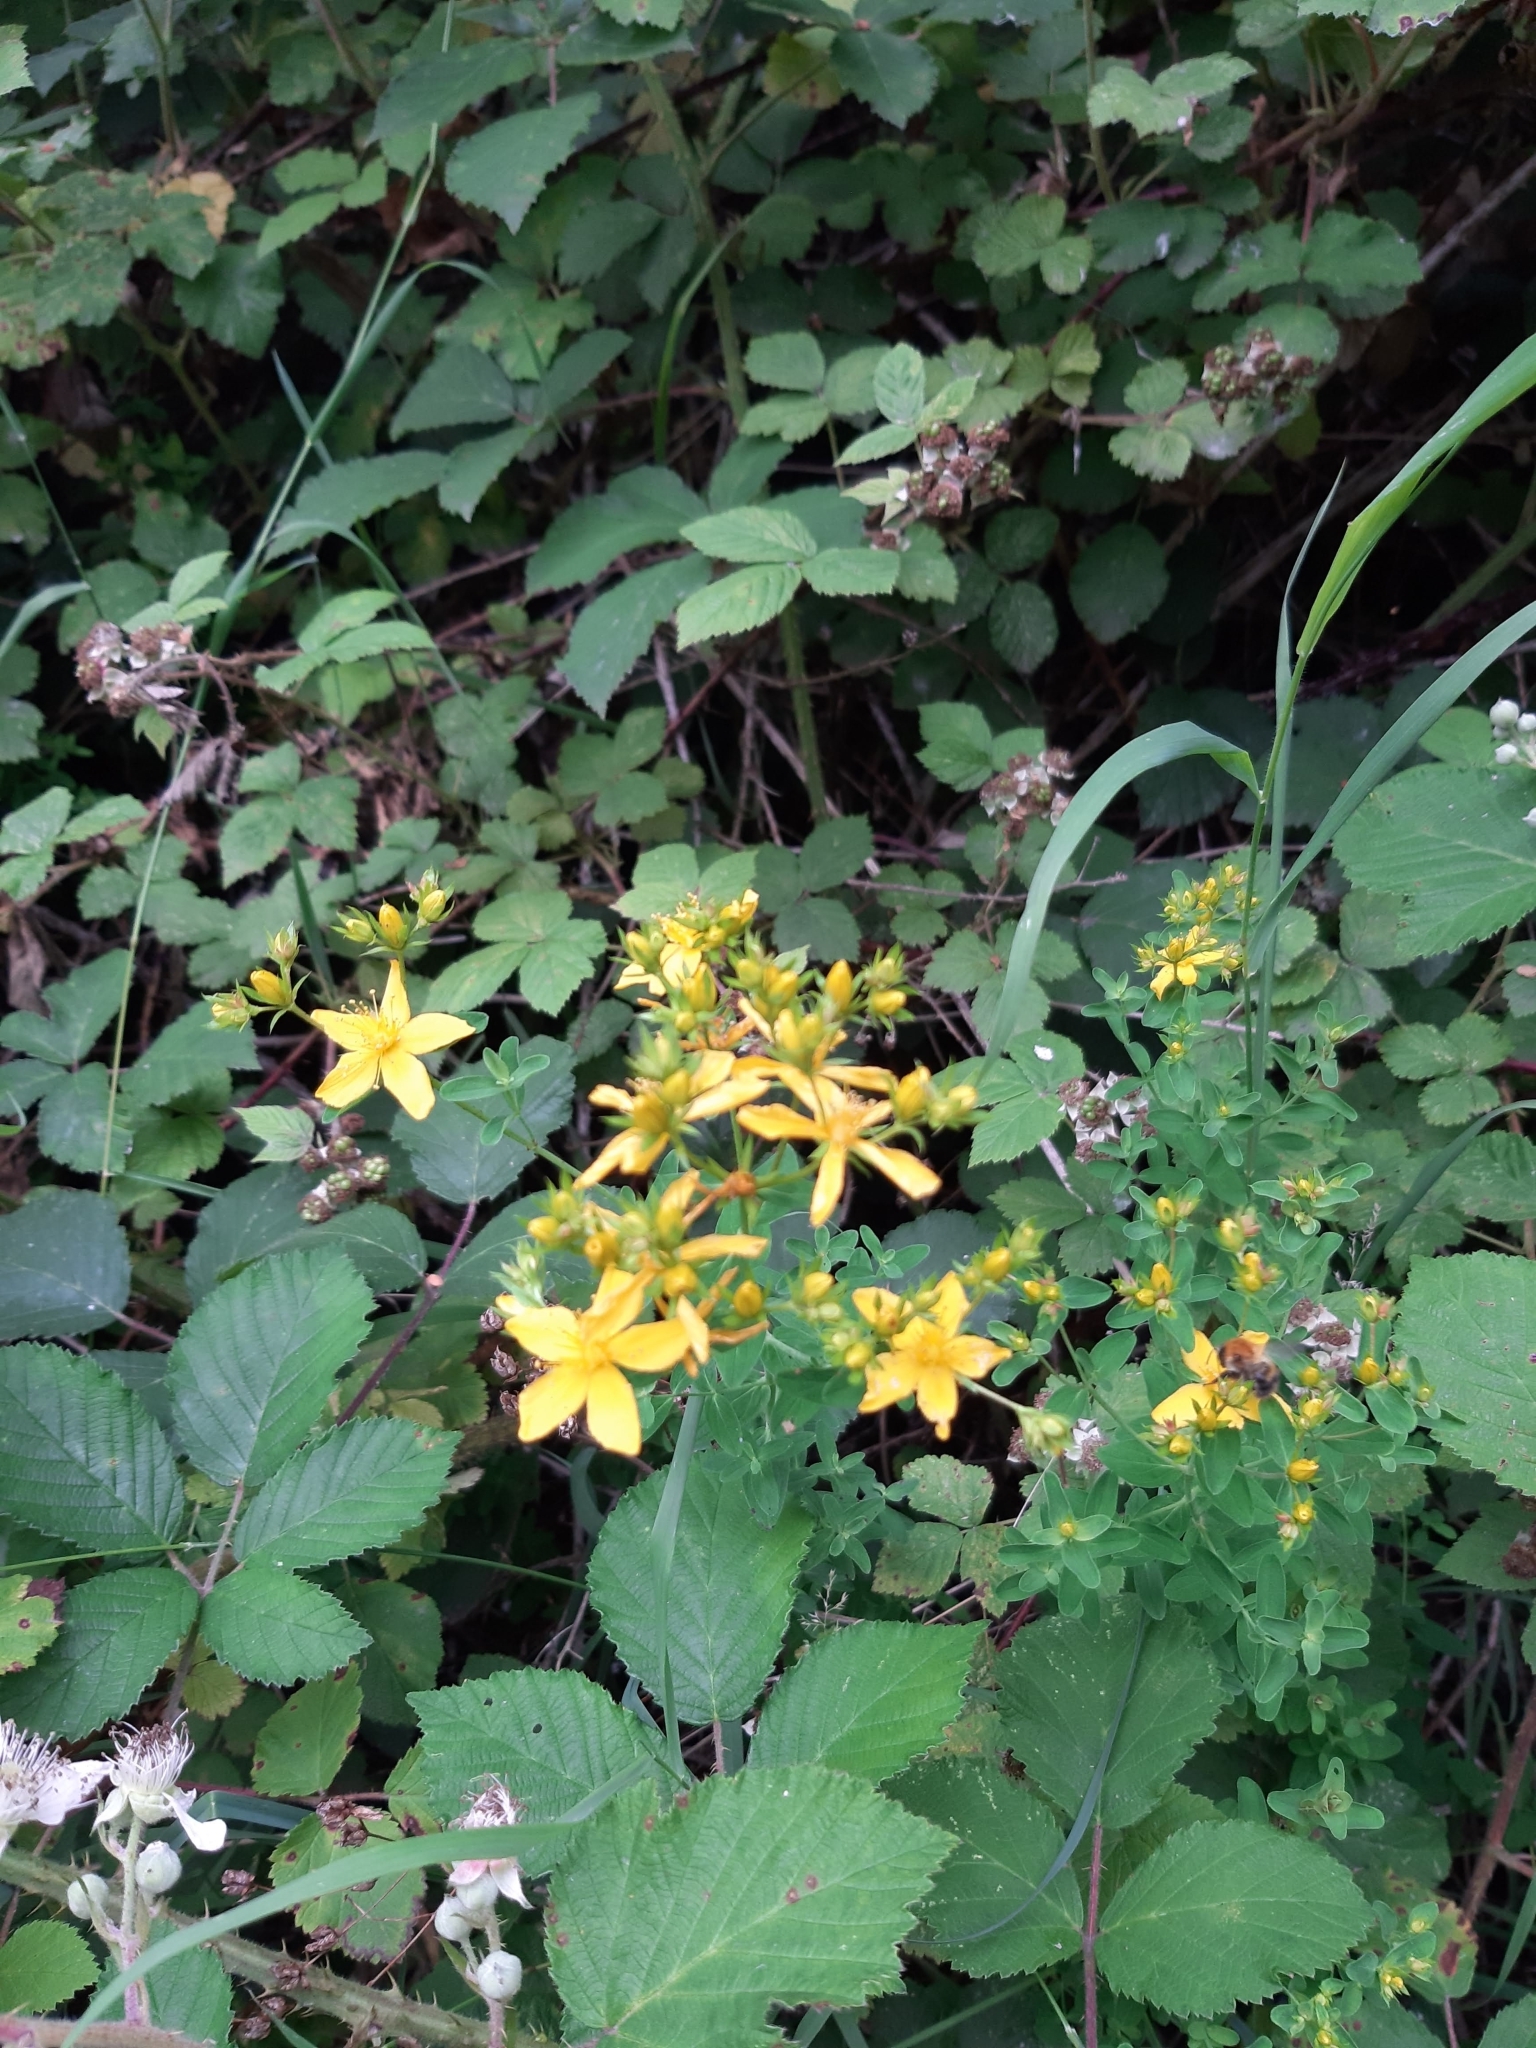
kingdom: Plantae
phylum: Tracheophyta
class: Magnoliopsida
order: Malpighiales
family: Hypericaceae
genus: Hypericum
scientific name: Hypericum perforatum
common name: Common st. johnswort
